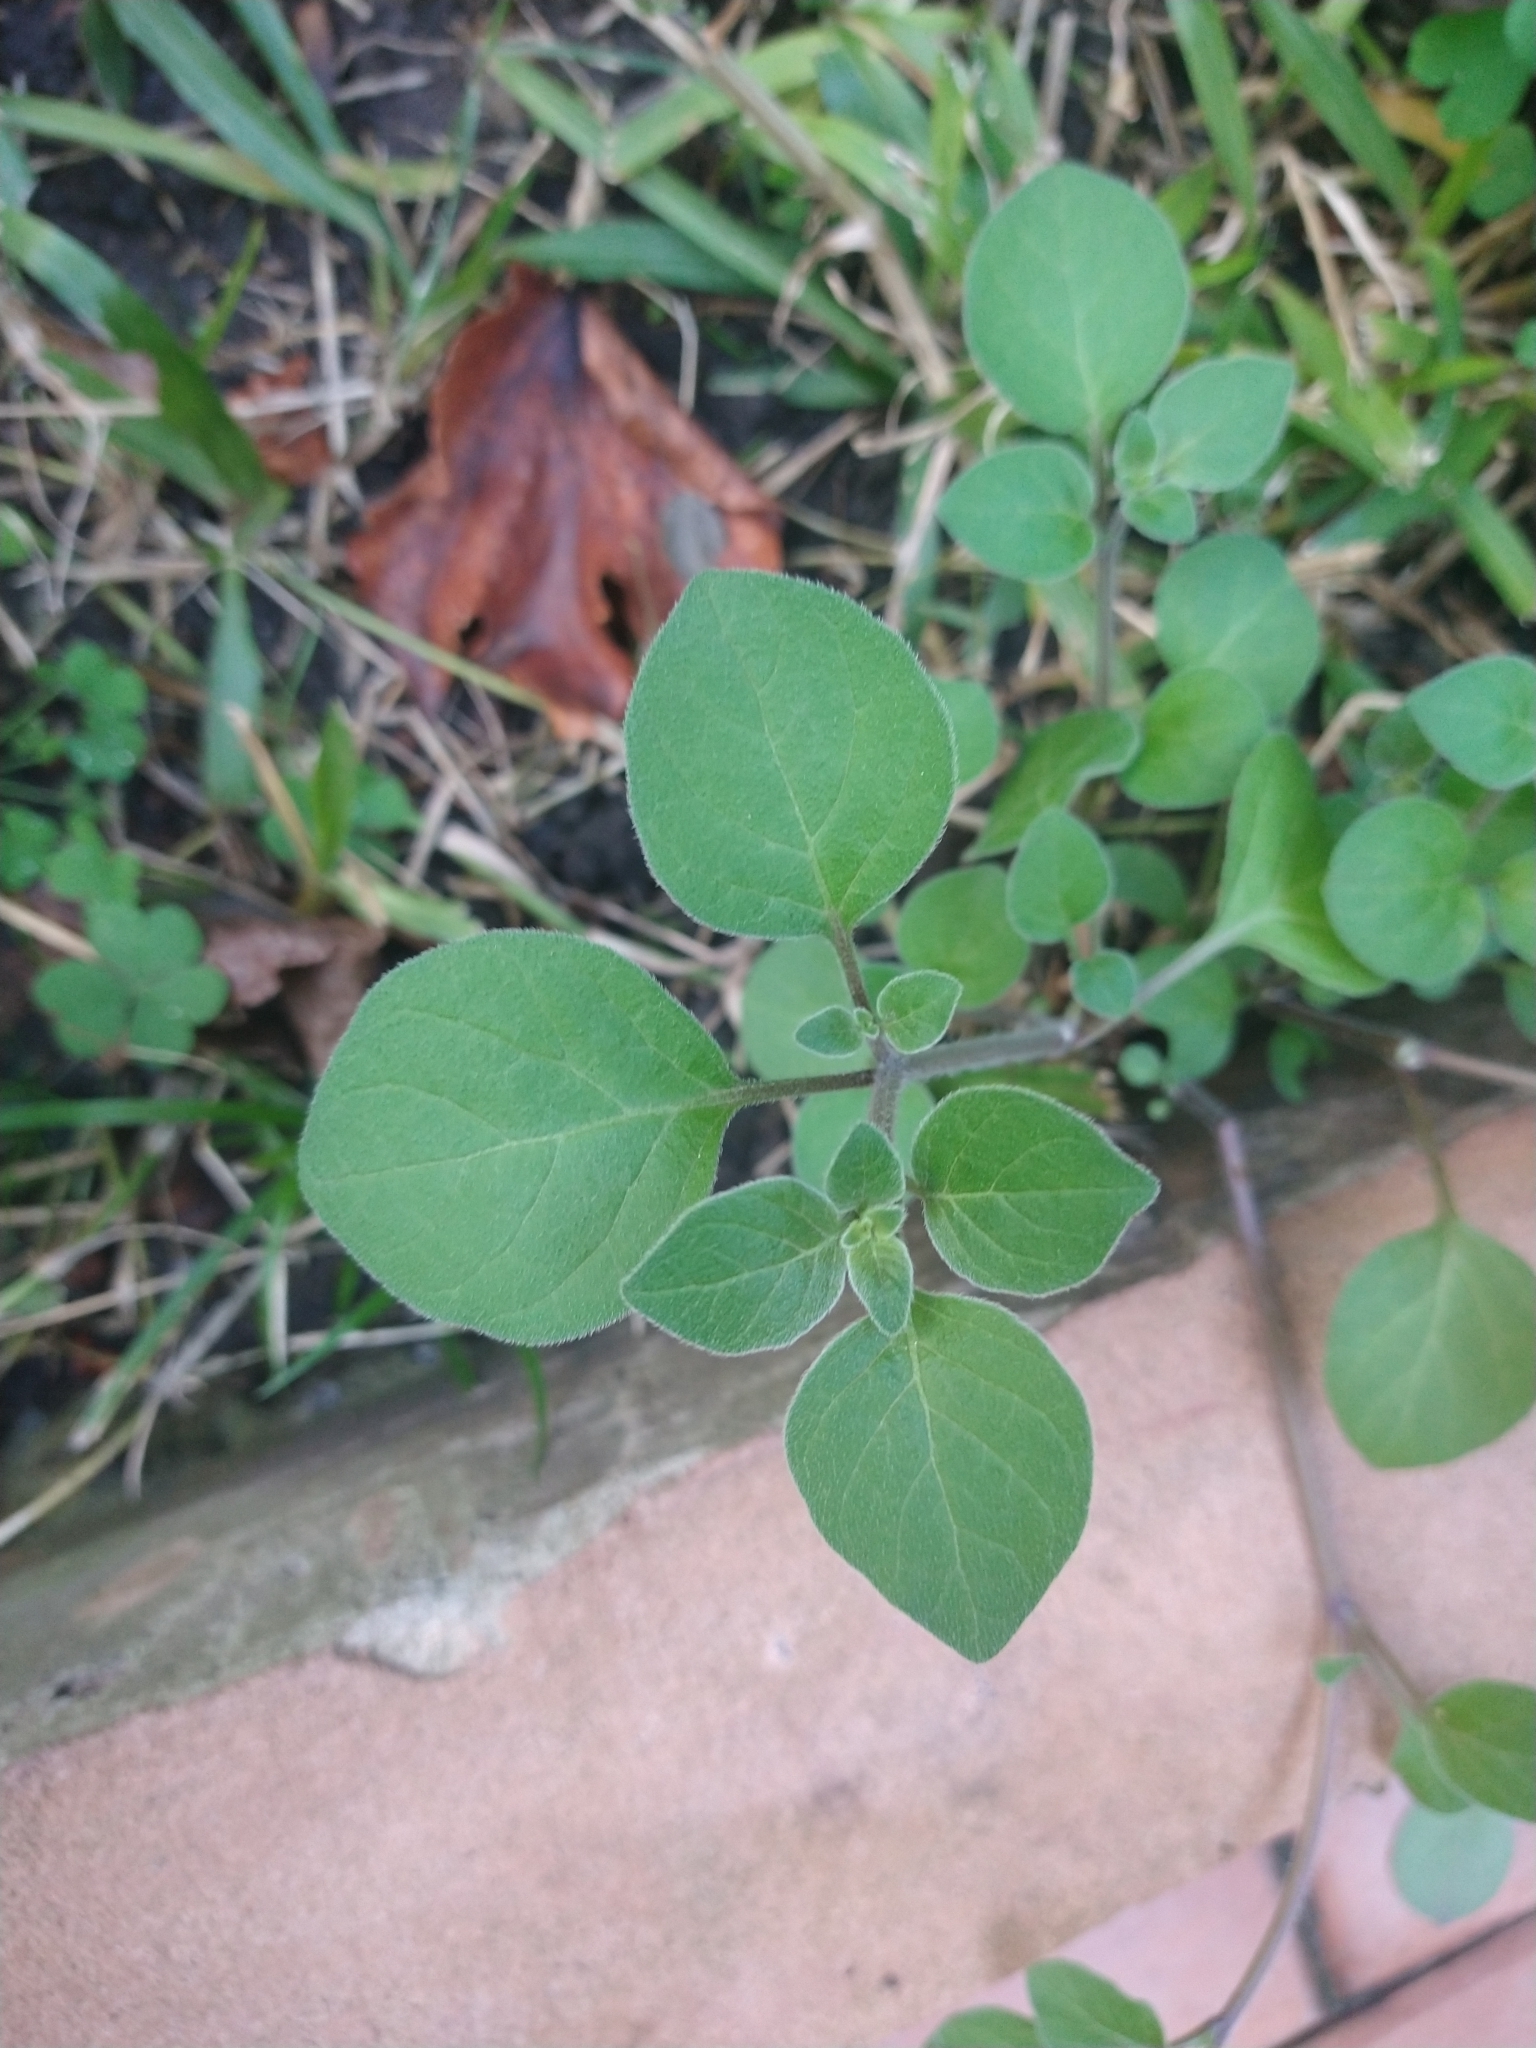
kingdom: Plantae
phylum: Tracheophyta
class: Magnoliopsida
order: Solanales
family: Solanaceae
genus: Salpichroa
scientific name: Salpichroa origanifolia
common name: Lily-of-the-valley-vine
